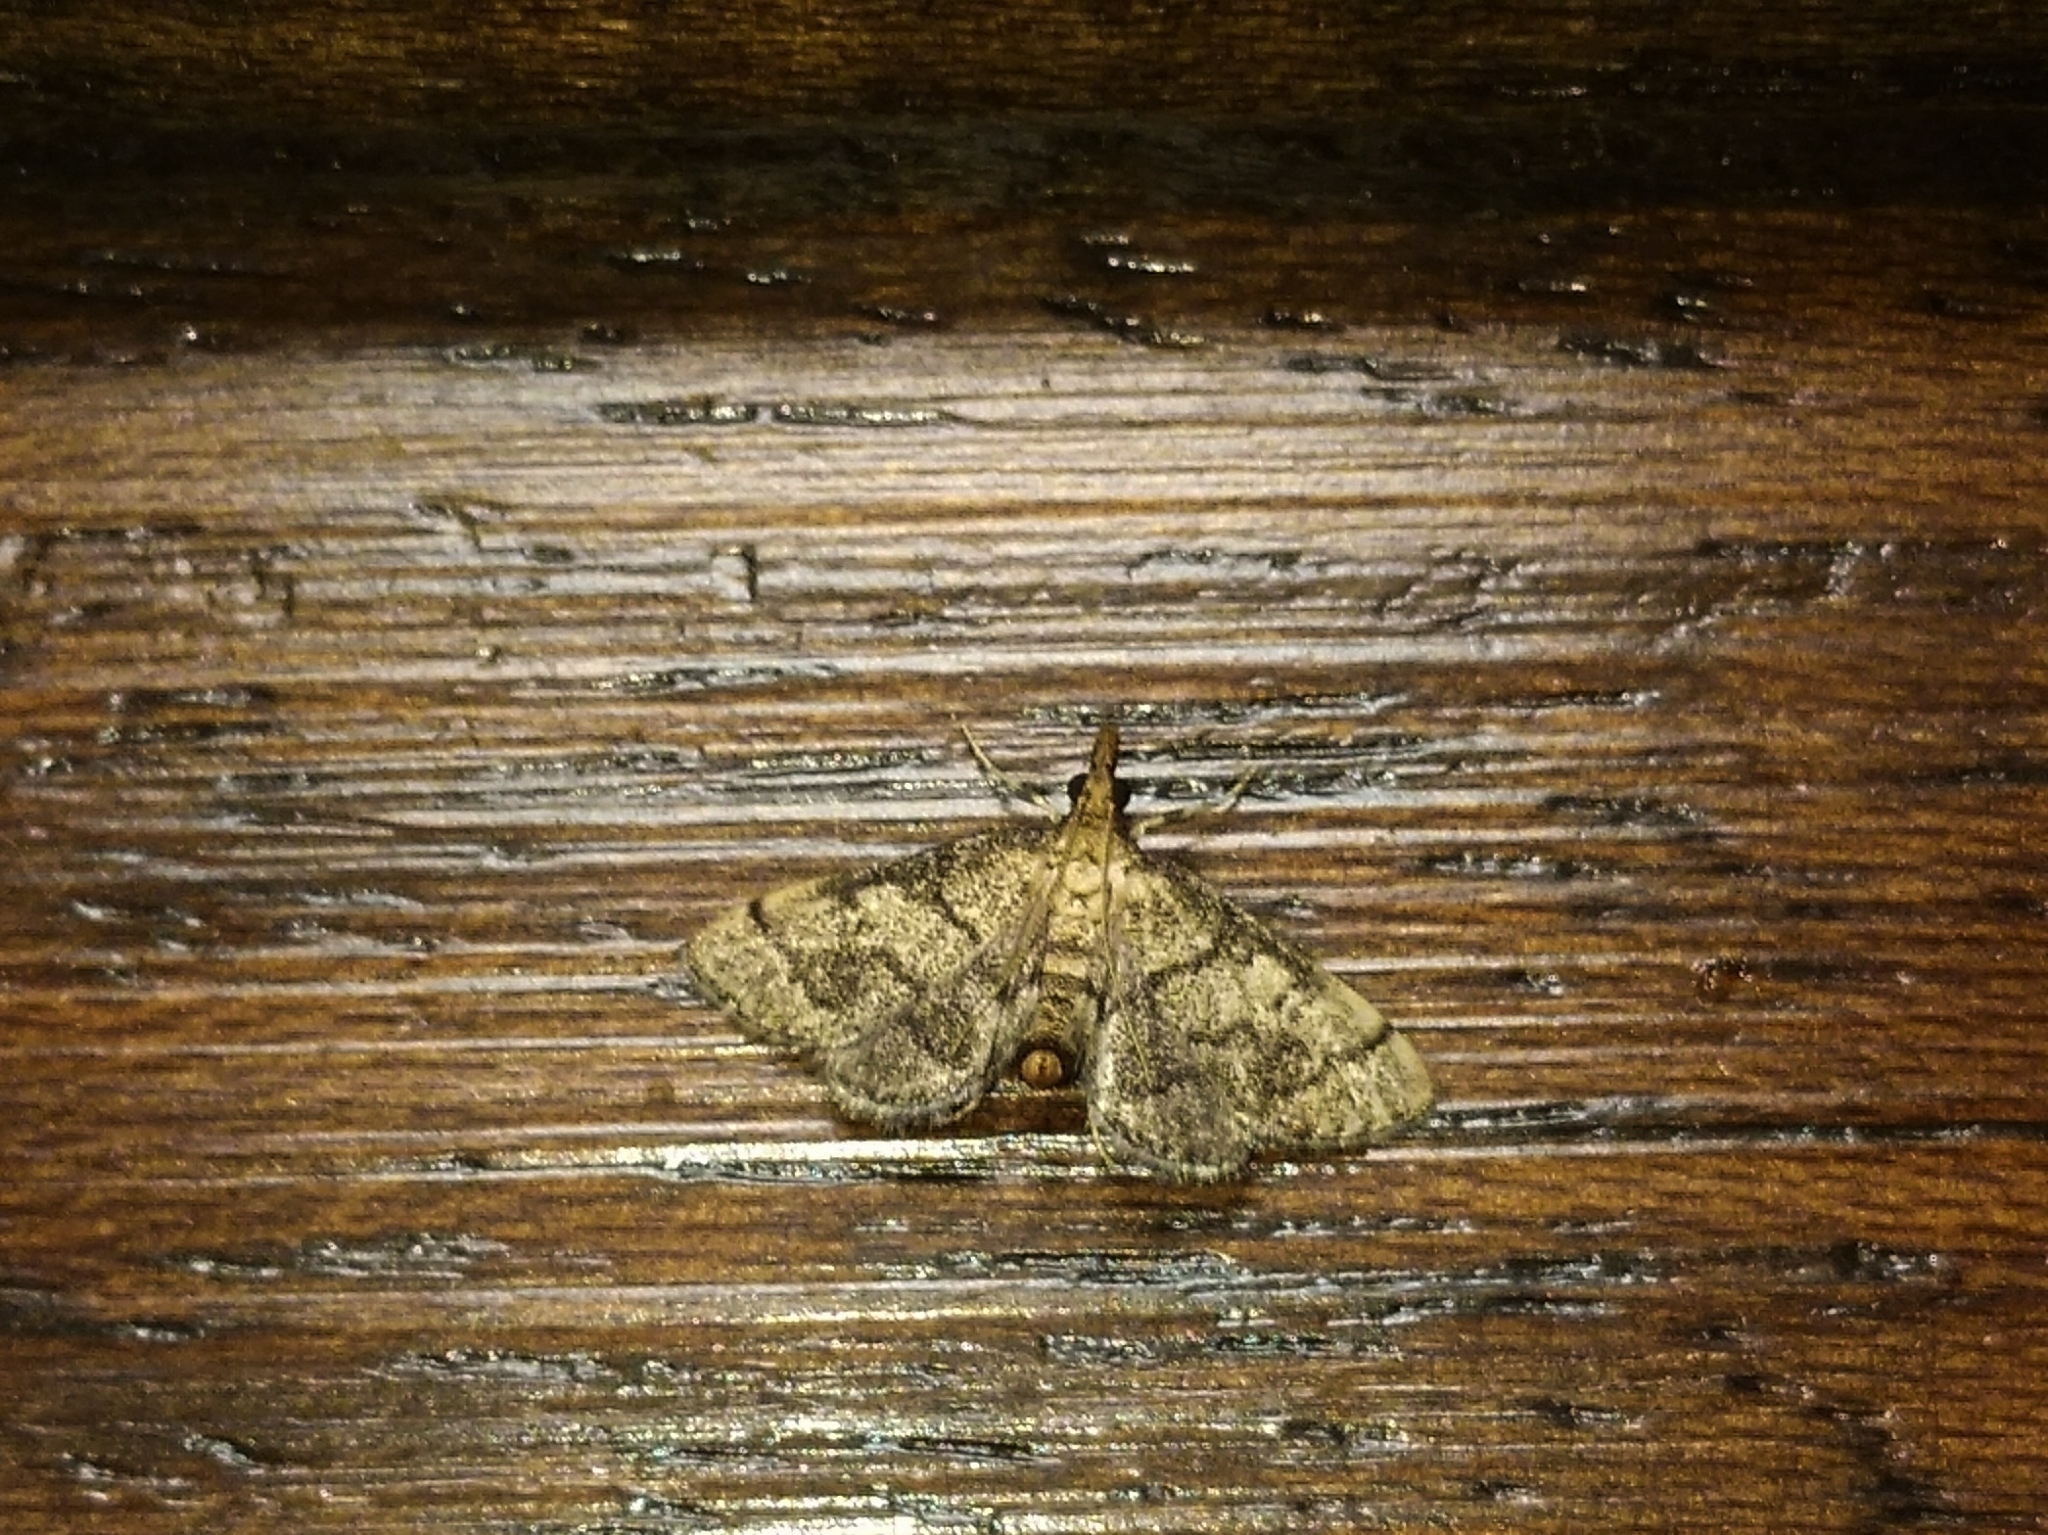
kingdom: Animalia
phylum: Arthropoda
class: Insecta
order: Lepidoptera
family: Crambidae
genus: Metasia
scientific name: Metasia ophialis
